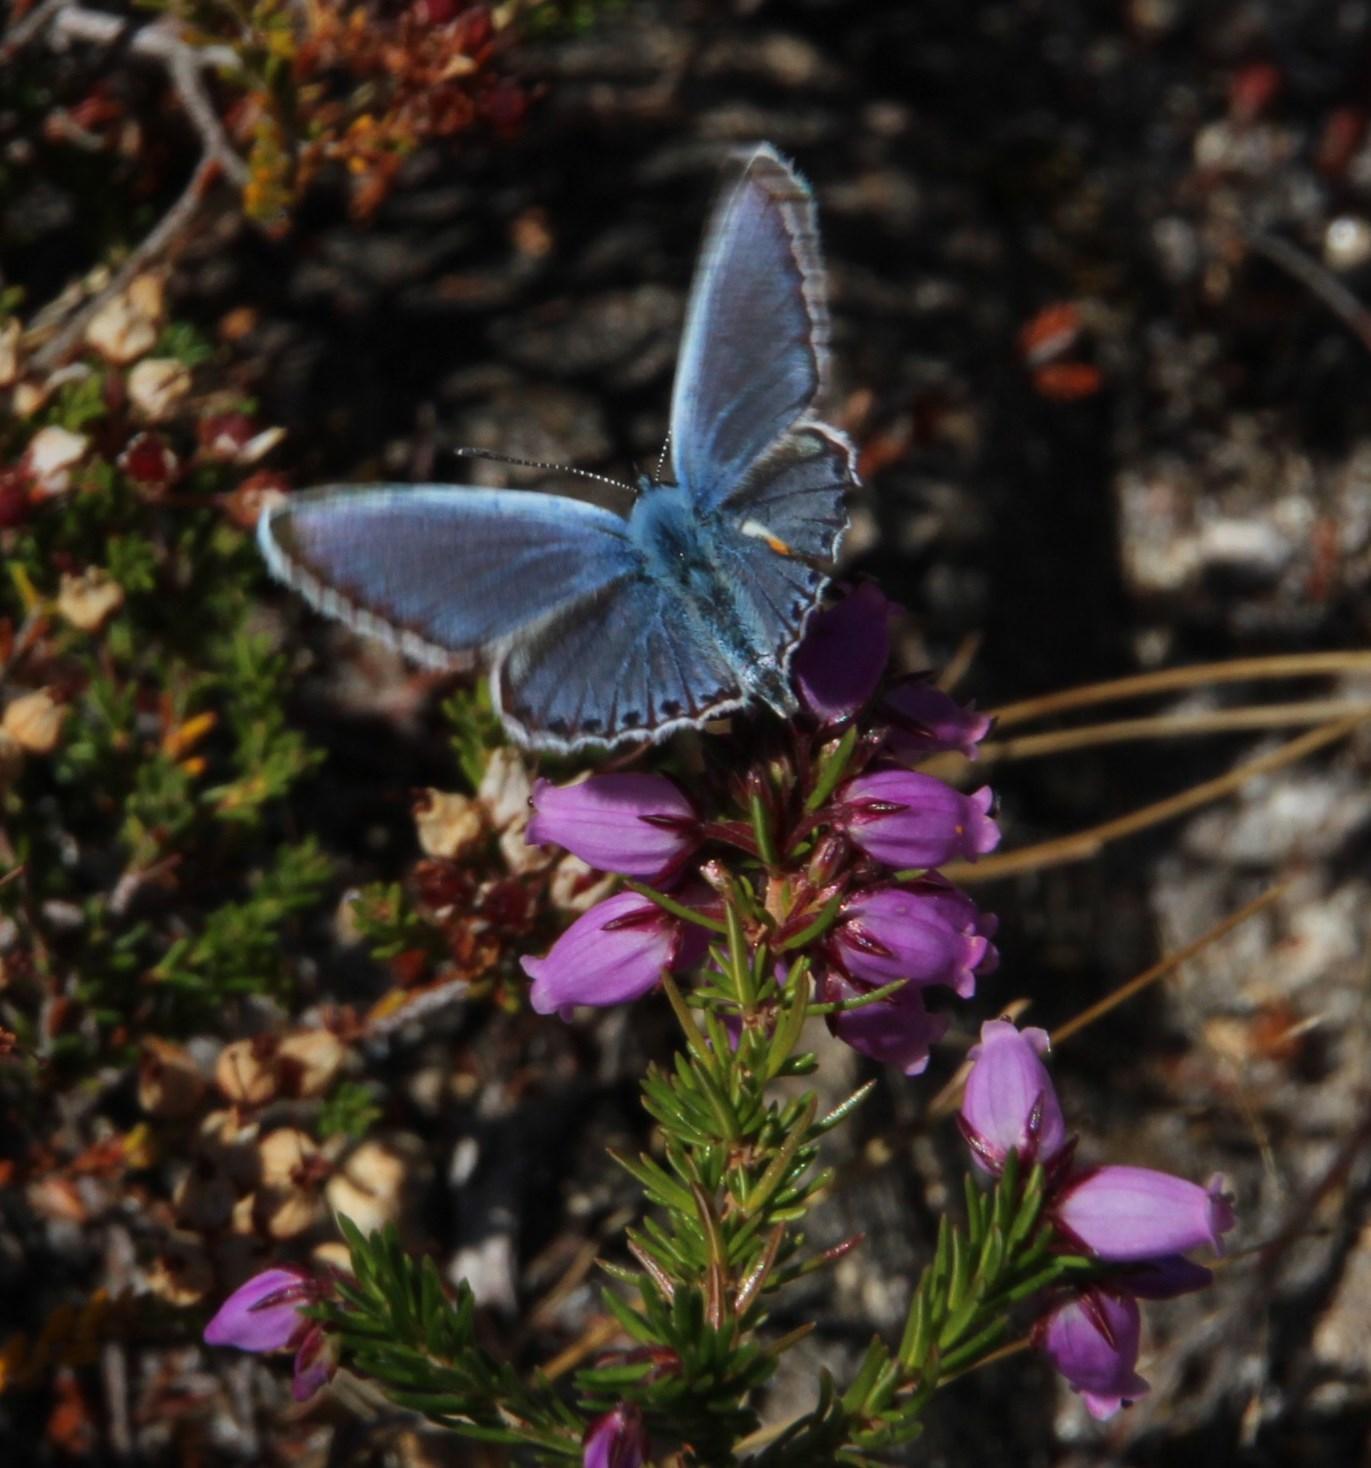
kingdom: Animalia
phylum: Arthropoda
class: Insecta
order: Lepidoptera
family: Lycaenidae
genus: Plebejus
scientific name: Plebejus argus
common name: Silver-studded blue
